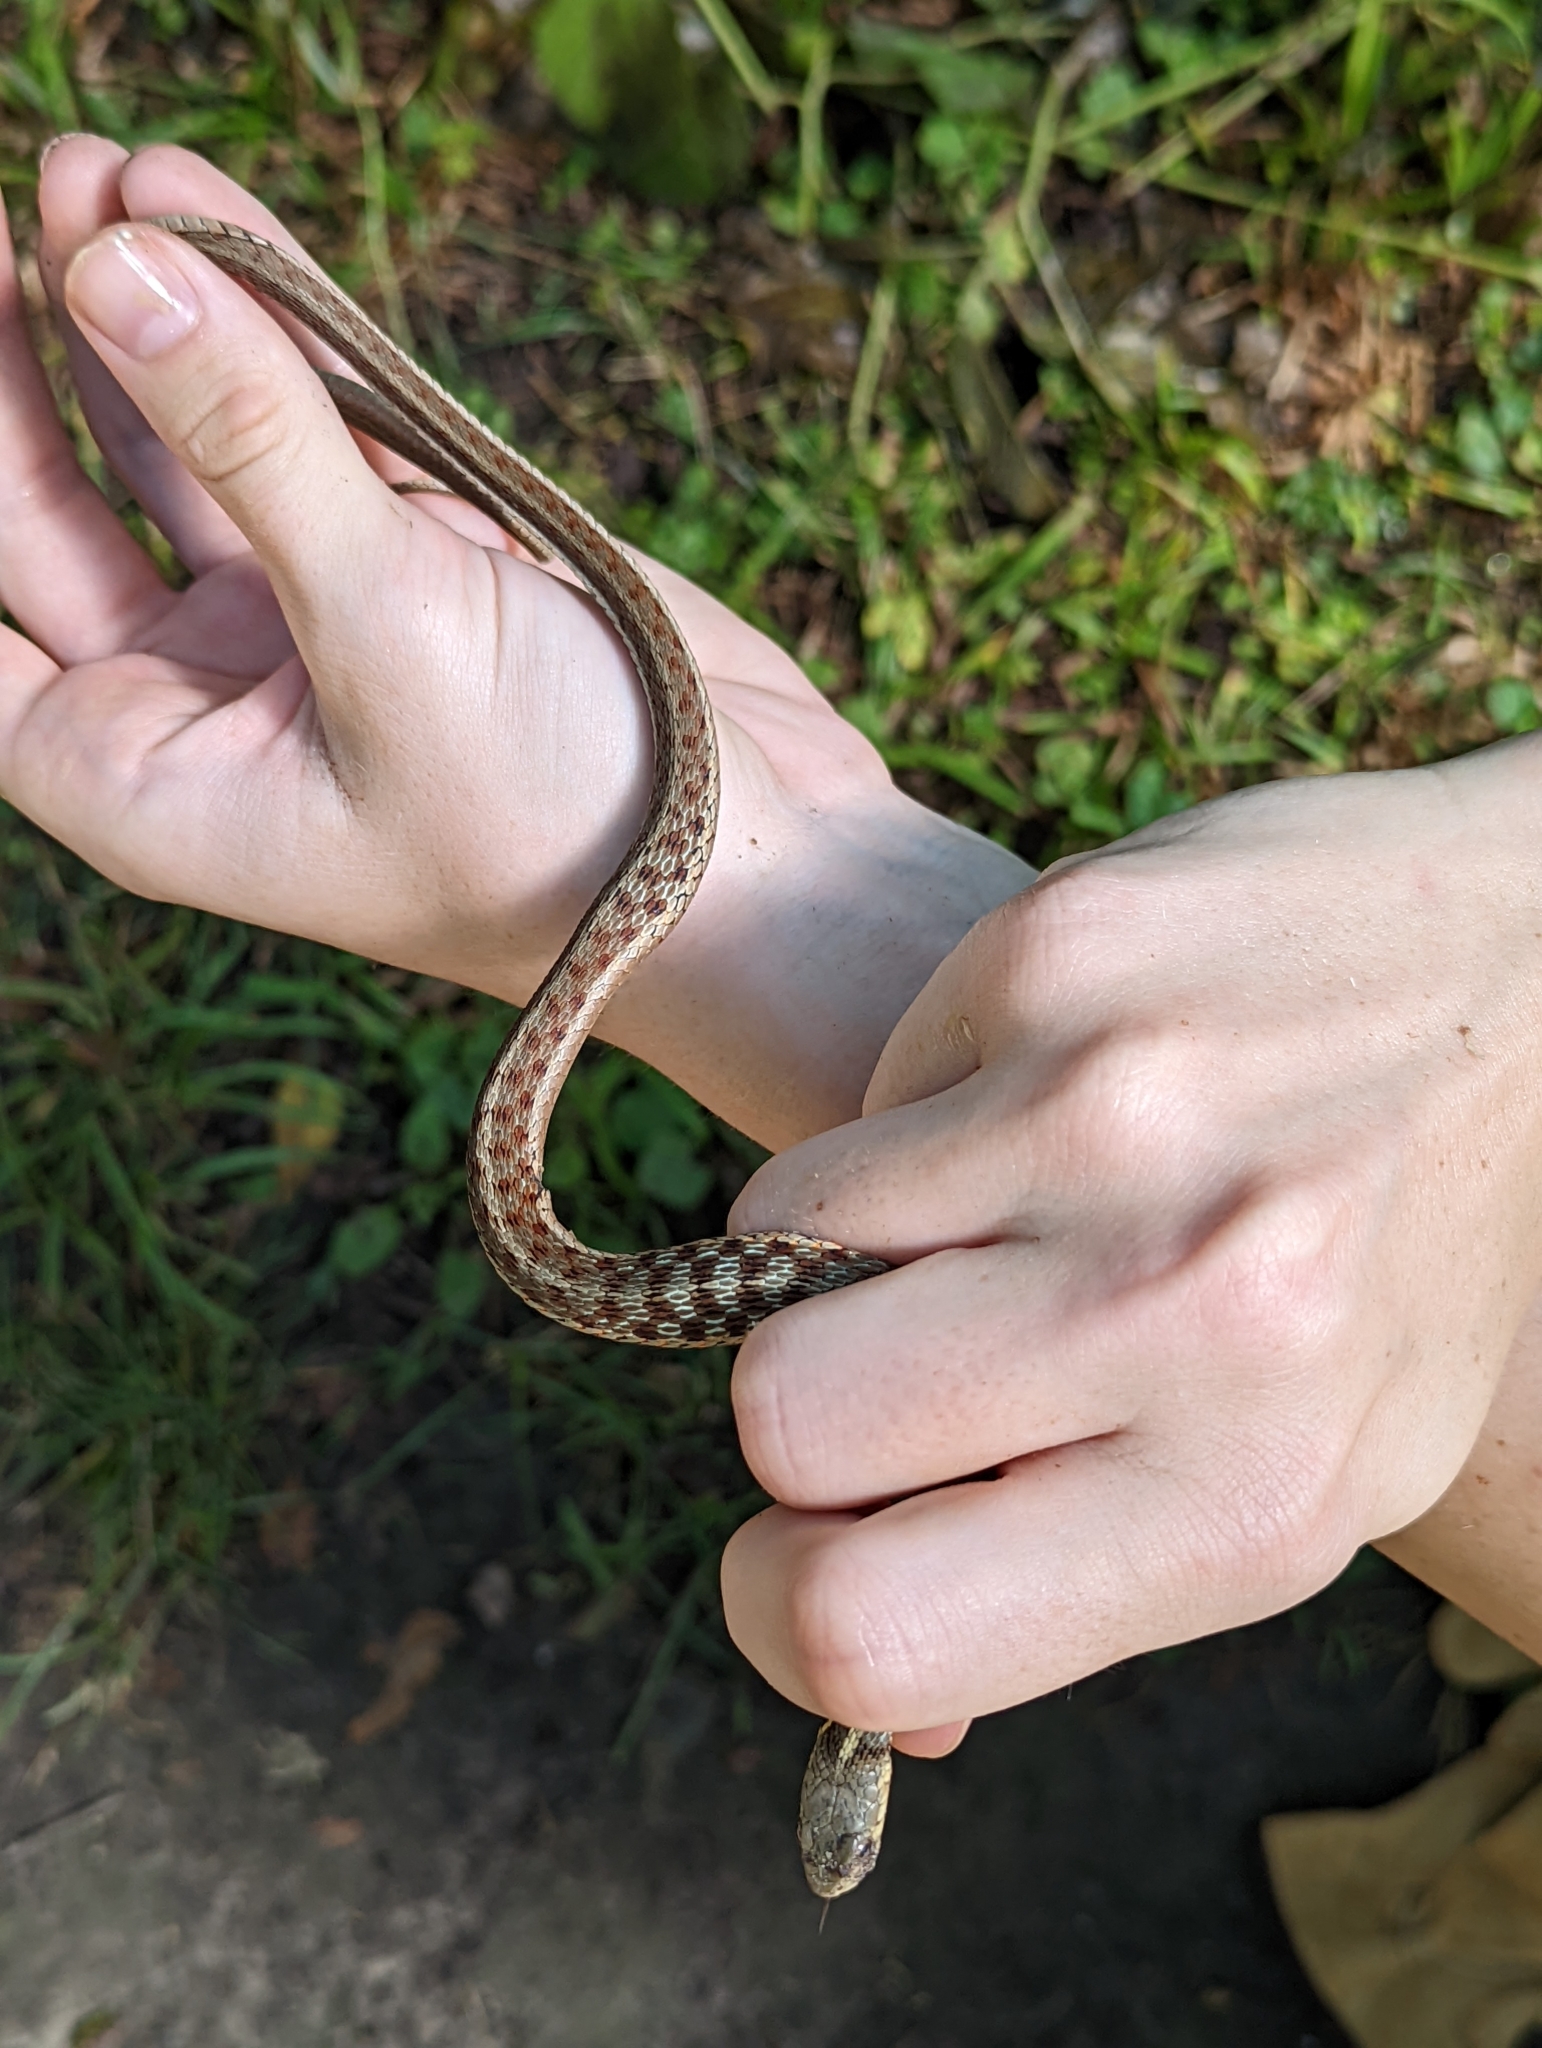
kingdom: Animalia
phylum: Chordata
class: Squamata
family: Colubridae
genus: Thamnophis
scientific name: Thamnophis sirtalis
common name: Common garter snake
